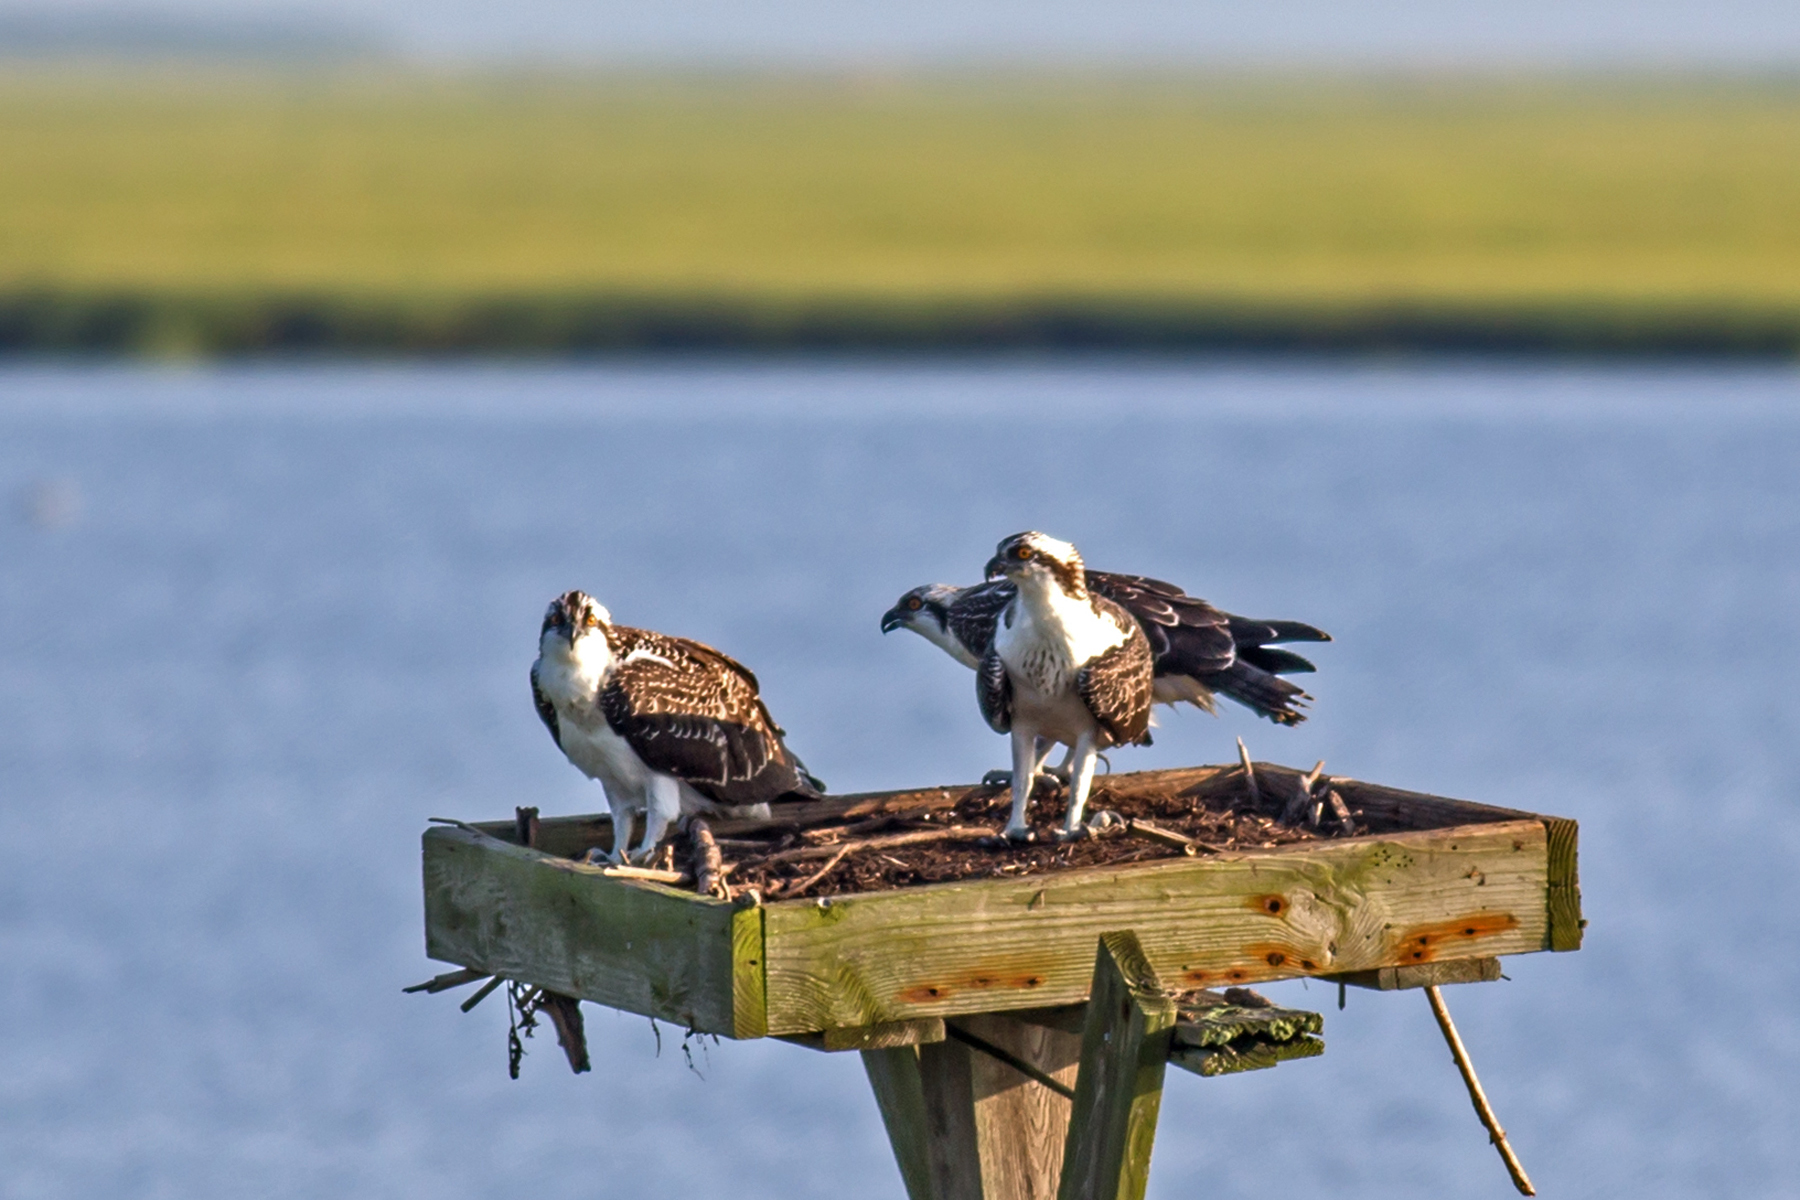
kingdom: Animalia
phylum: Chordata
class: Aves
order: Accipitriformes
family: Pandionidae
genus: Pandion
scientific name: Pandion haliaetus
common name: Osprey
